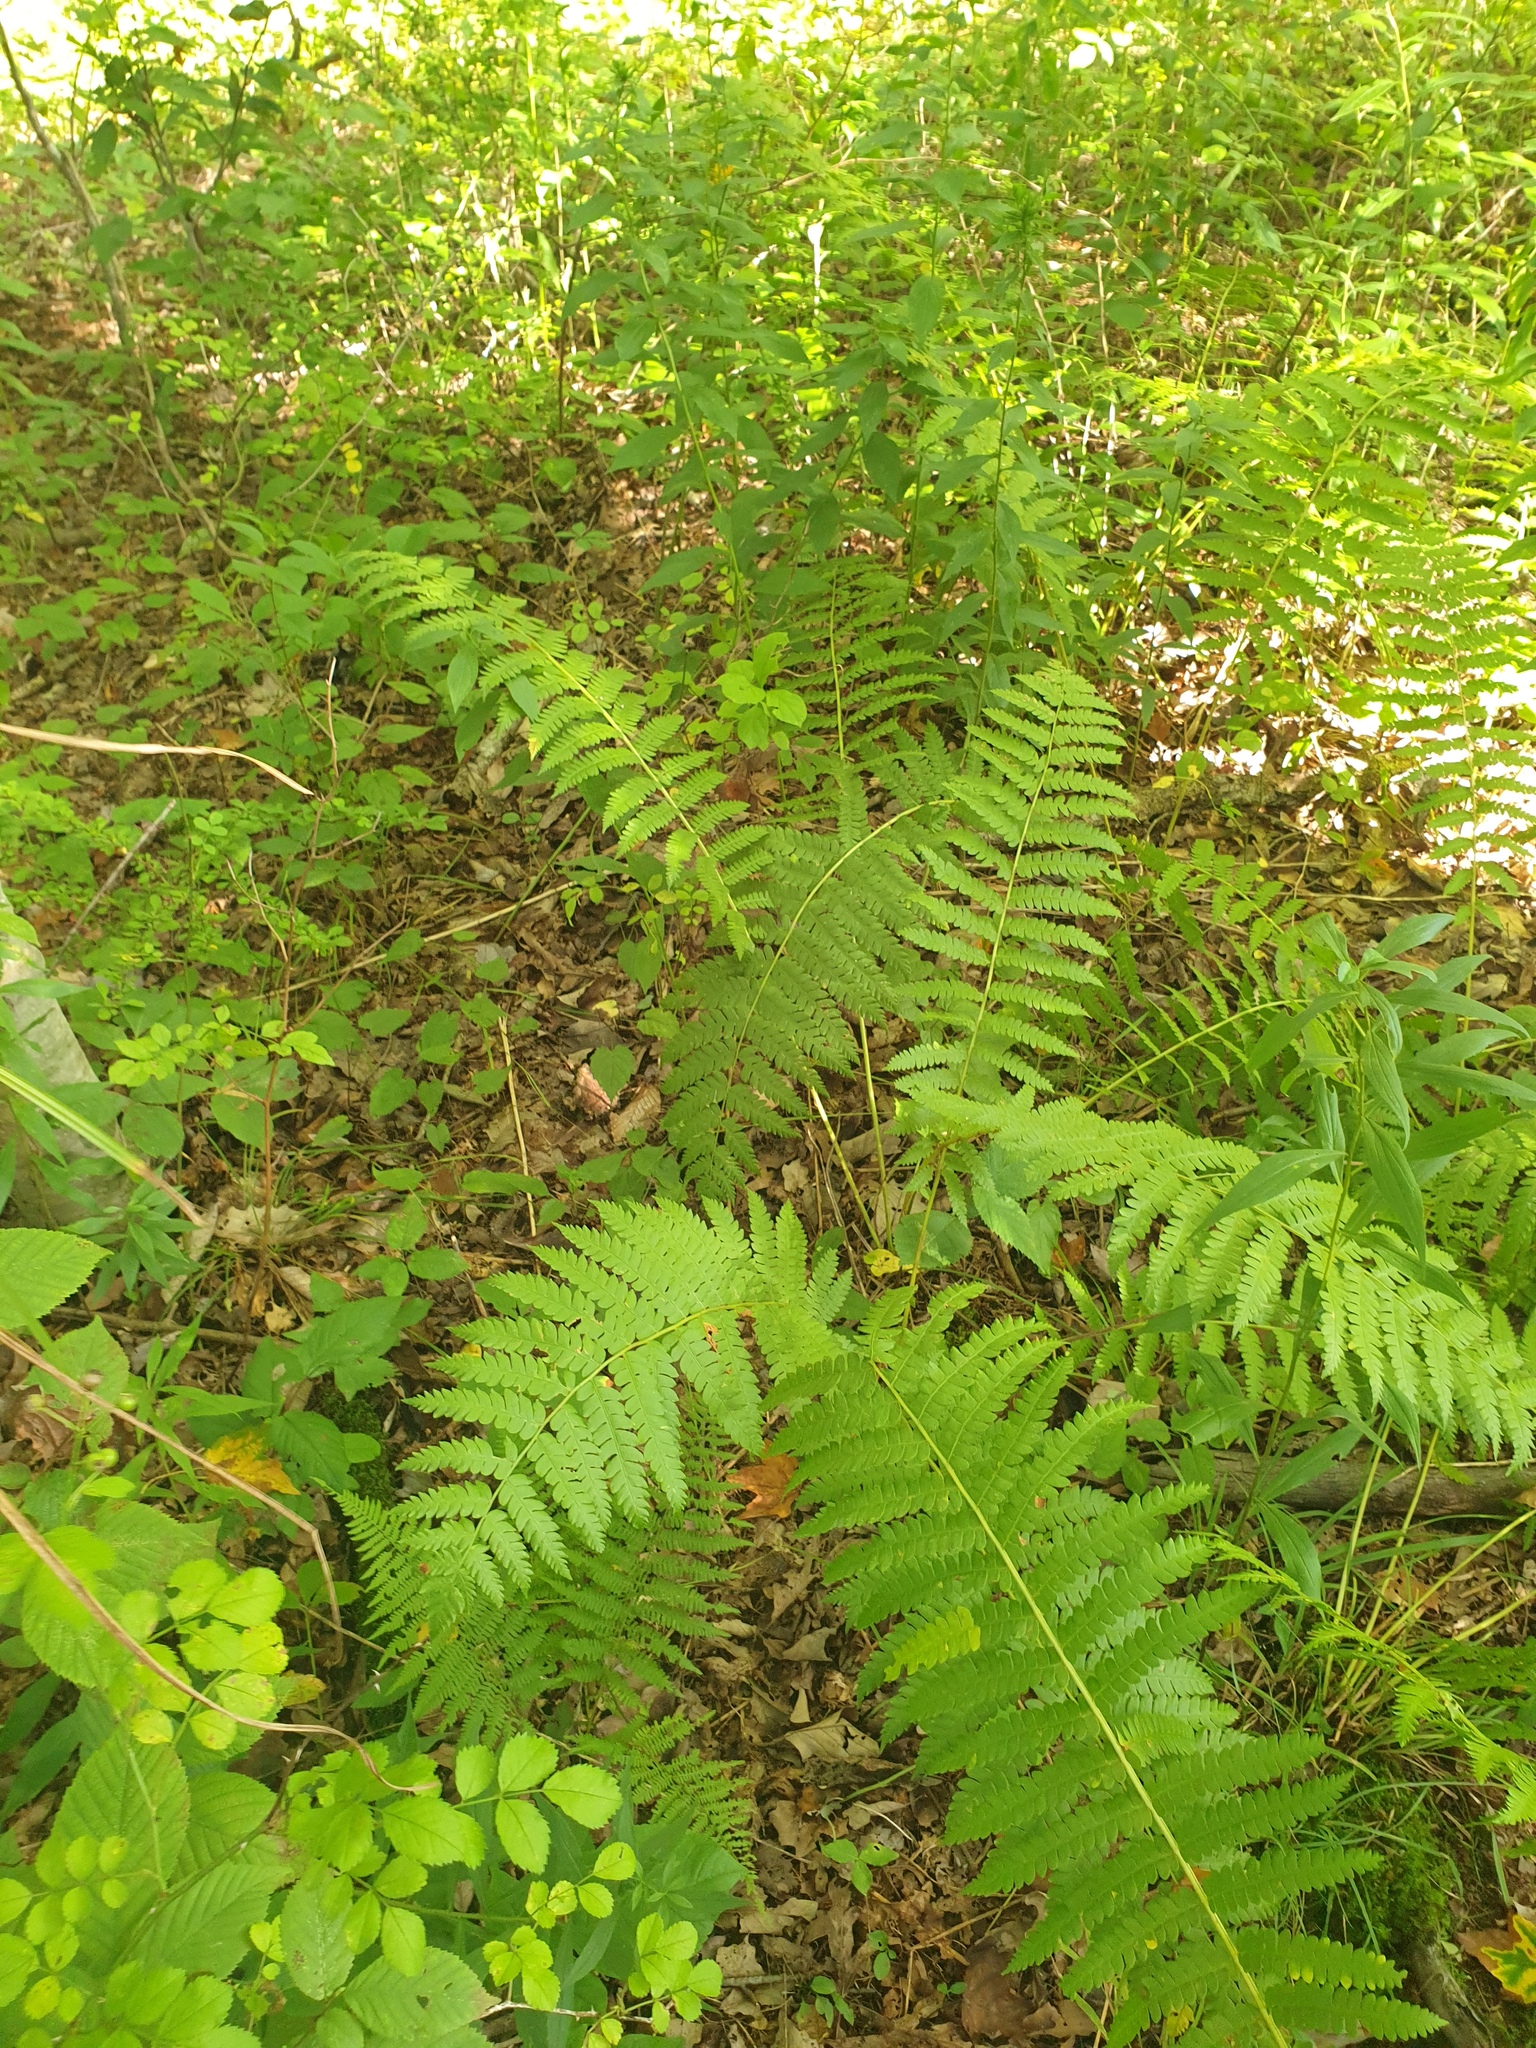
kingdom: Plantae
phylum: Tracheophyta
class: Polypodiopsida
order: Osmundales
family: Osmundaceae
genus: Osmundastrum
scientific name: Osmundastrum cinnamomeum
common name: Cinnamon fern
